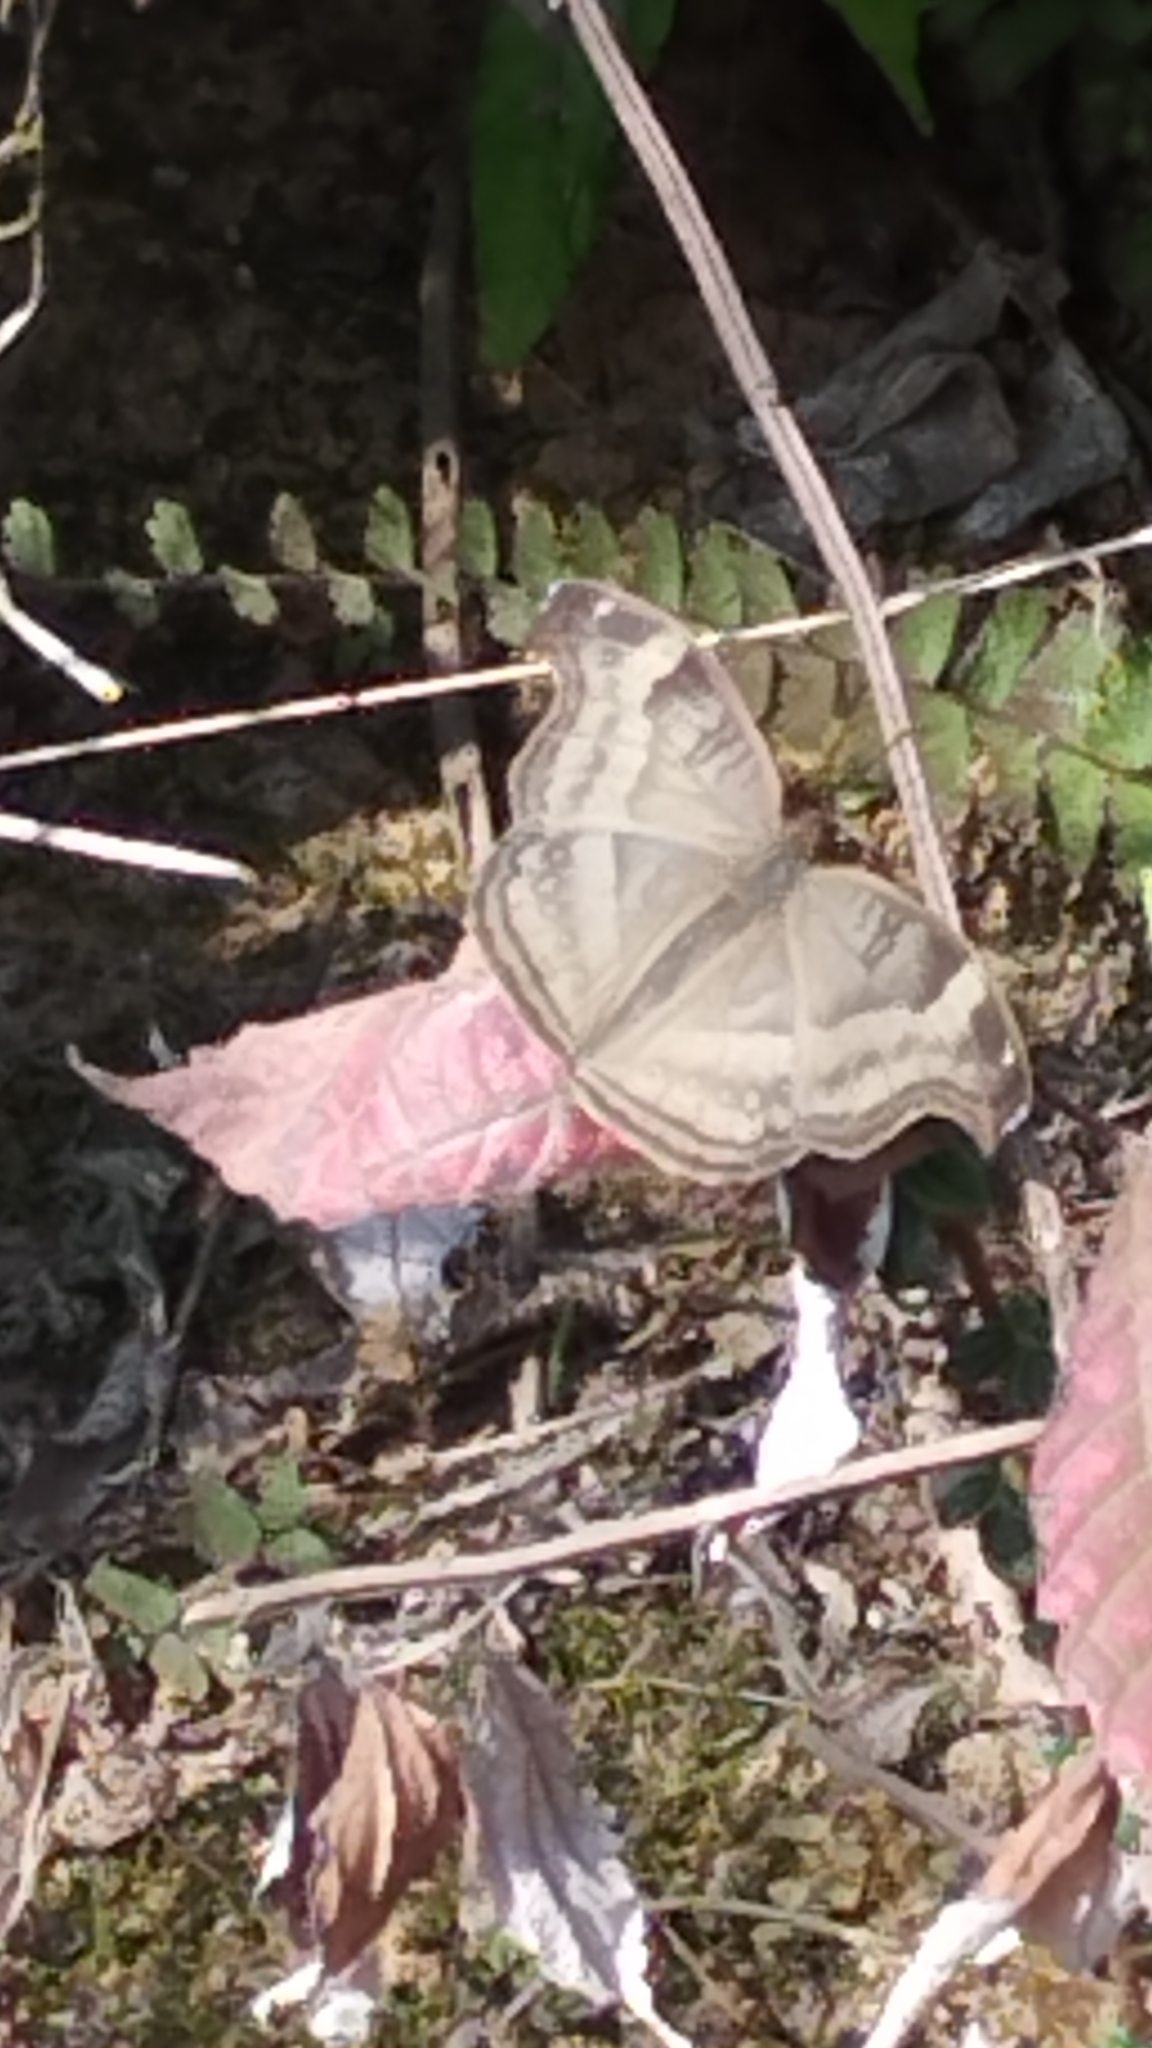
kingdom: Animalia
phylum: Arthropoda
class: Insecta
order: Lepidoptera
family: Nymphalidae
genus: Junonia
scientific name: Junonia iphita
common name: Chocolate pansy
